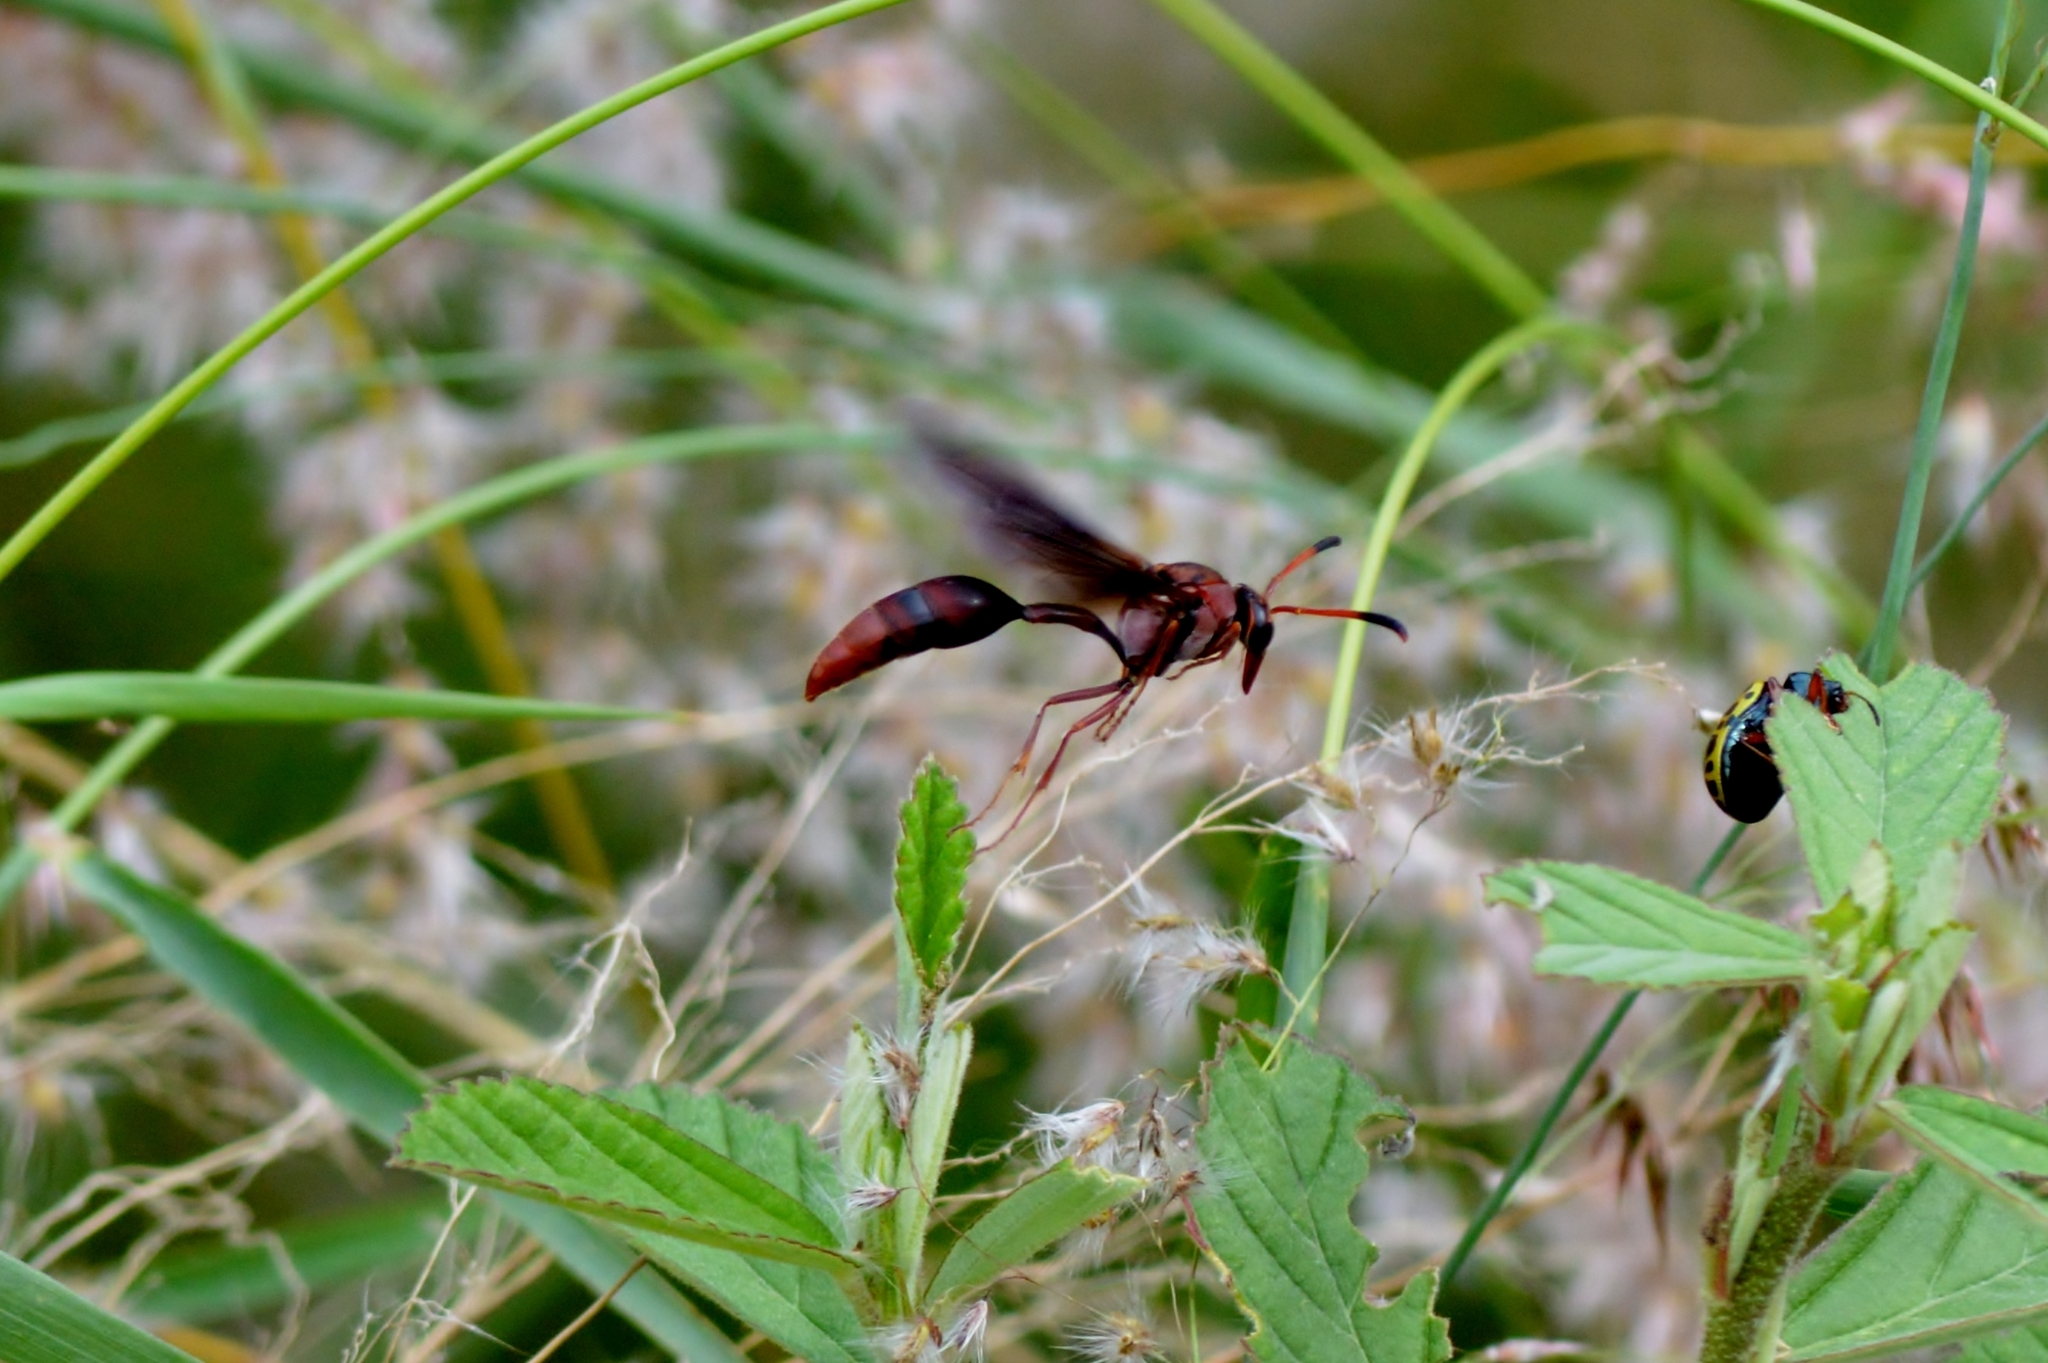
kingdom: Animalia
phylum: Arthropoda
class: Insecta
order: Hymenoptera
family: Eumenidae
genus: Zeta
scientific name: Zeta argillaceum
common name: Potter wasp
